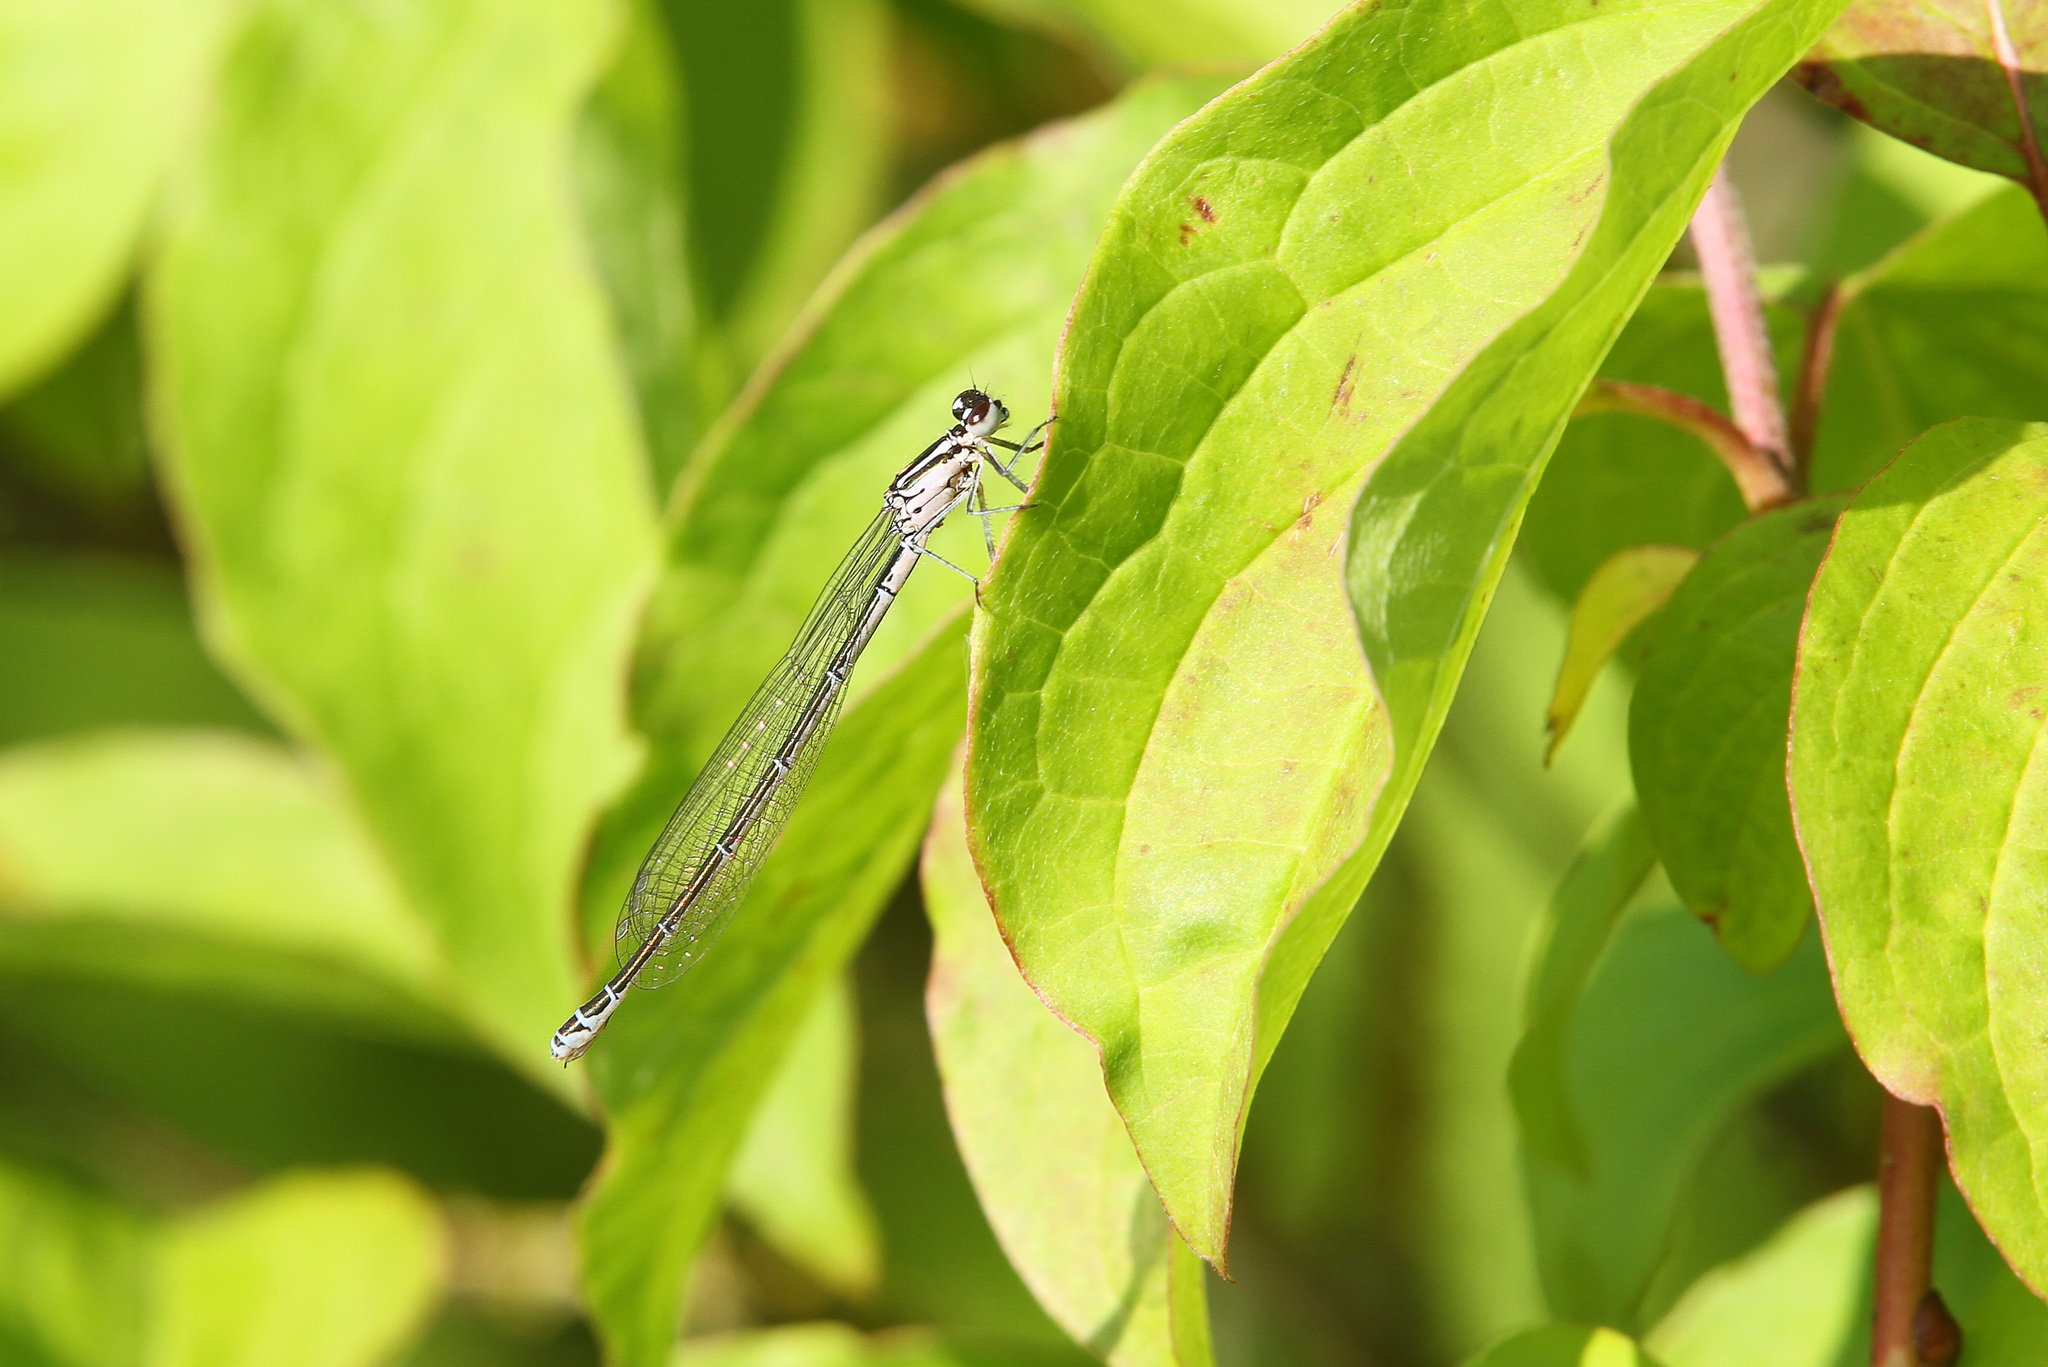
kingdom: Animalia
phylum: Arthropoda
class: Insecta
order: Odonata
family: Coenagrionidae
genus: Coenagrion
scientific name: Coenagrion puella
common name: Azure damselfly
